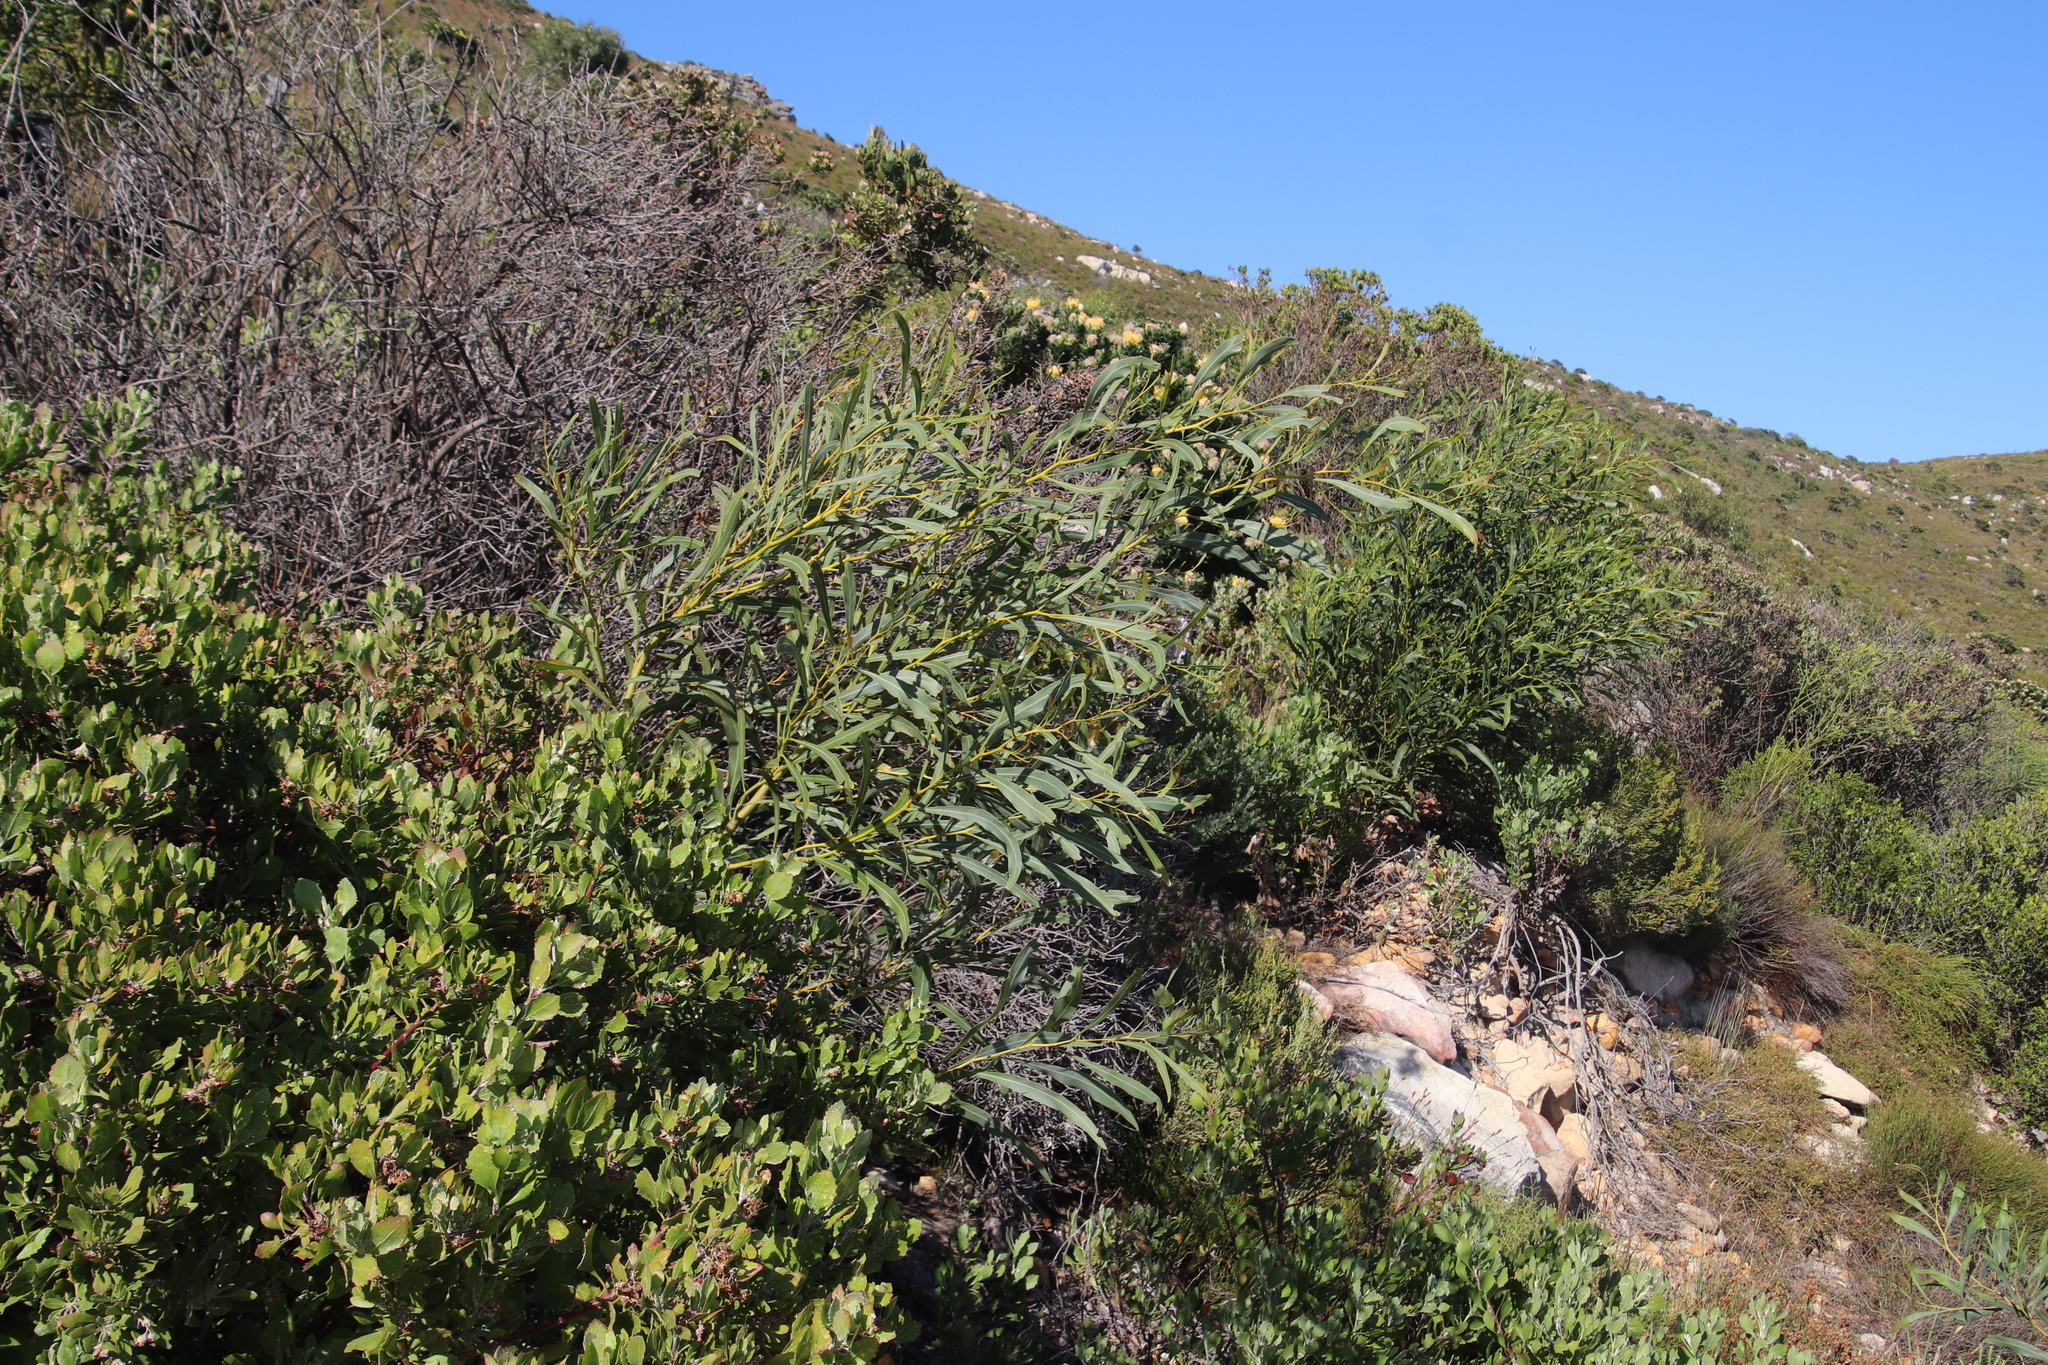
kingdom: Plantae
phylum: Tracheophyta
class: Magnoliopsida
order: Fabales
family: Fabaceae
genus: Acacia
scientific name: Acacia saligna
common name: Orange wattle
